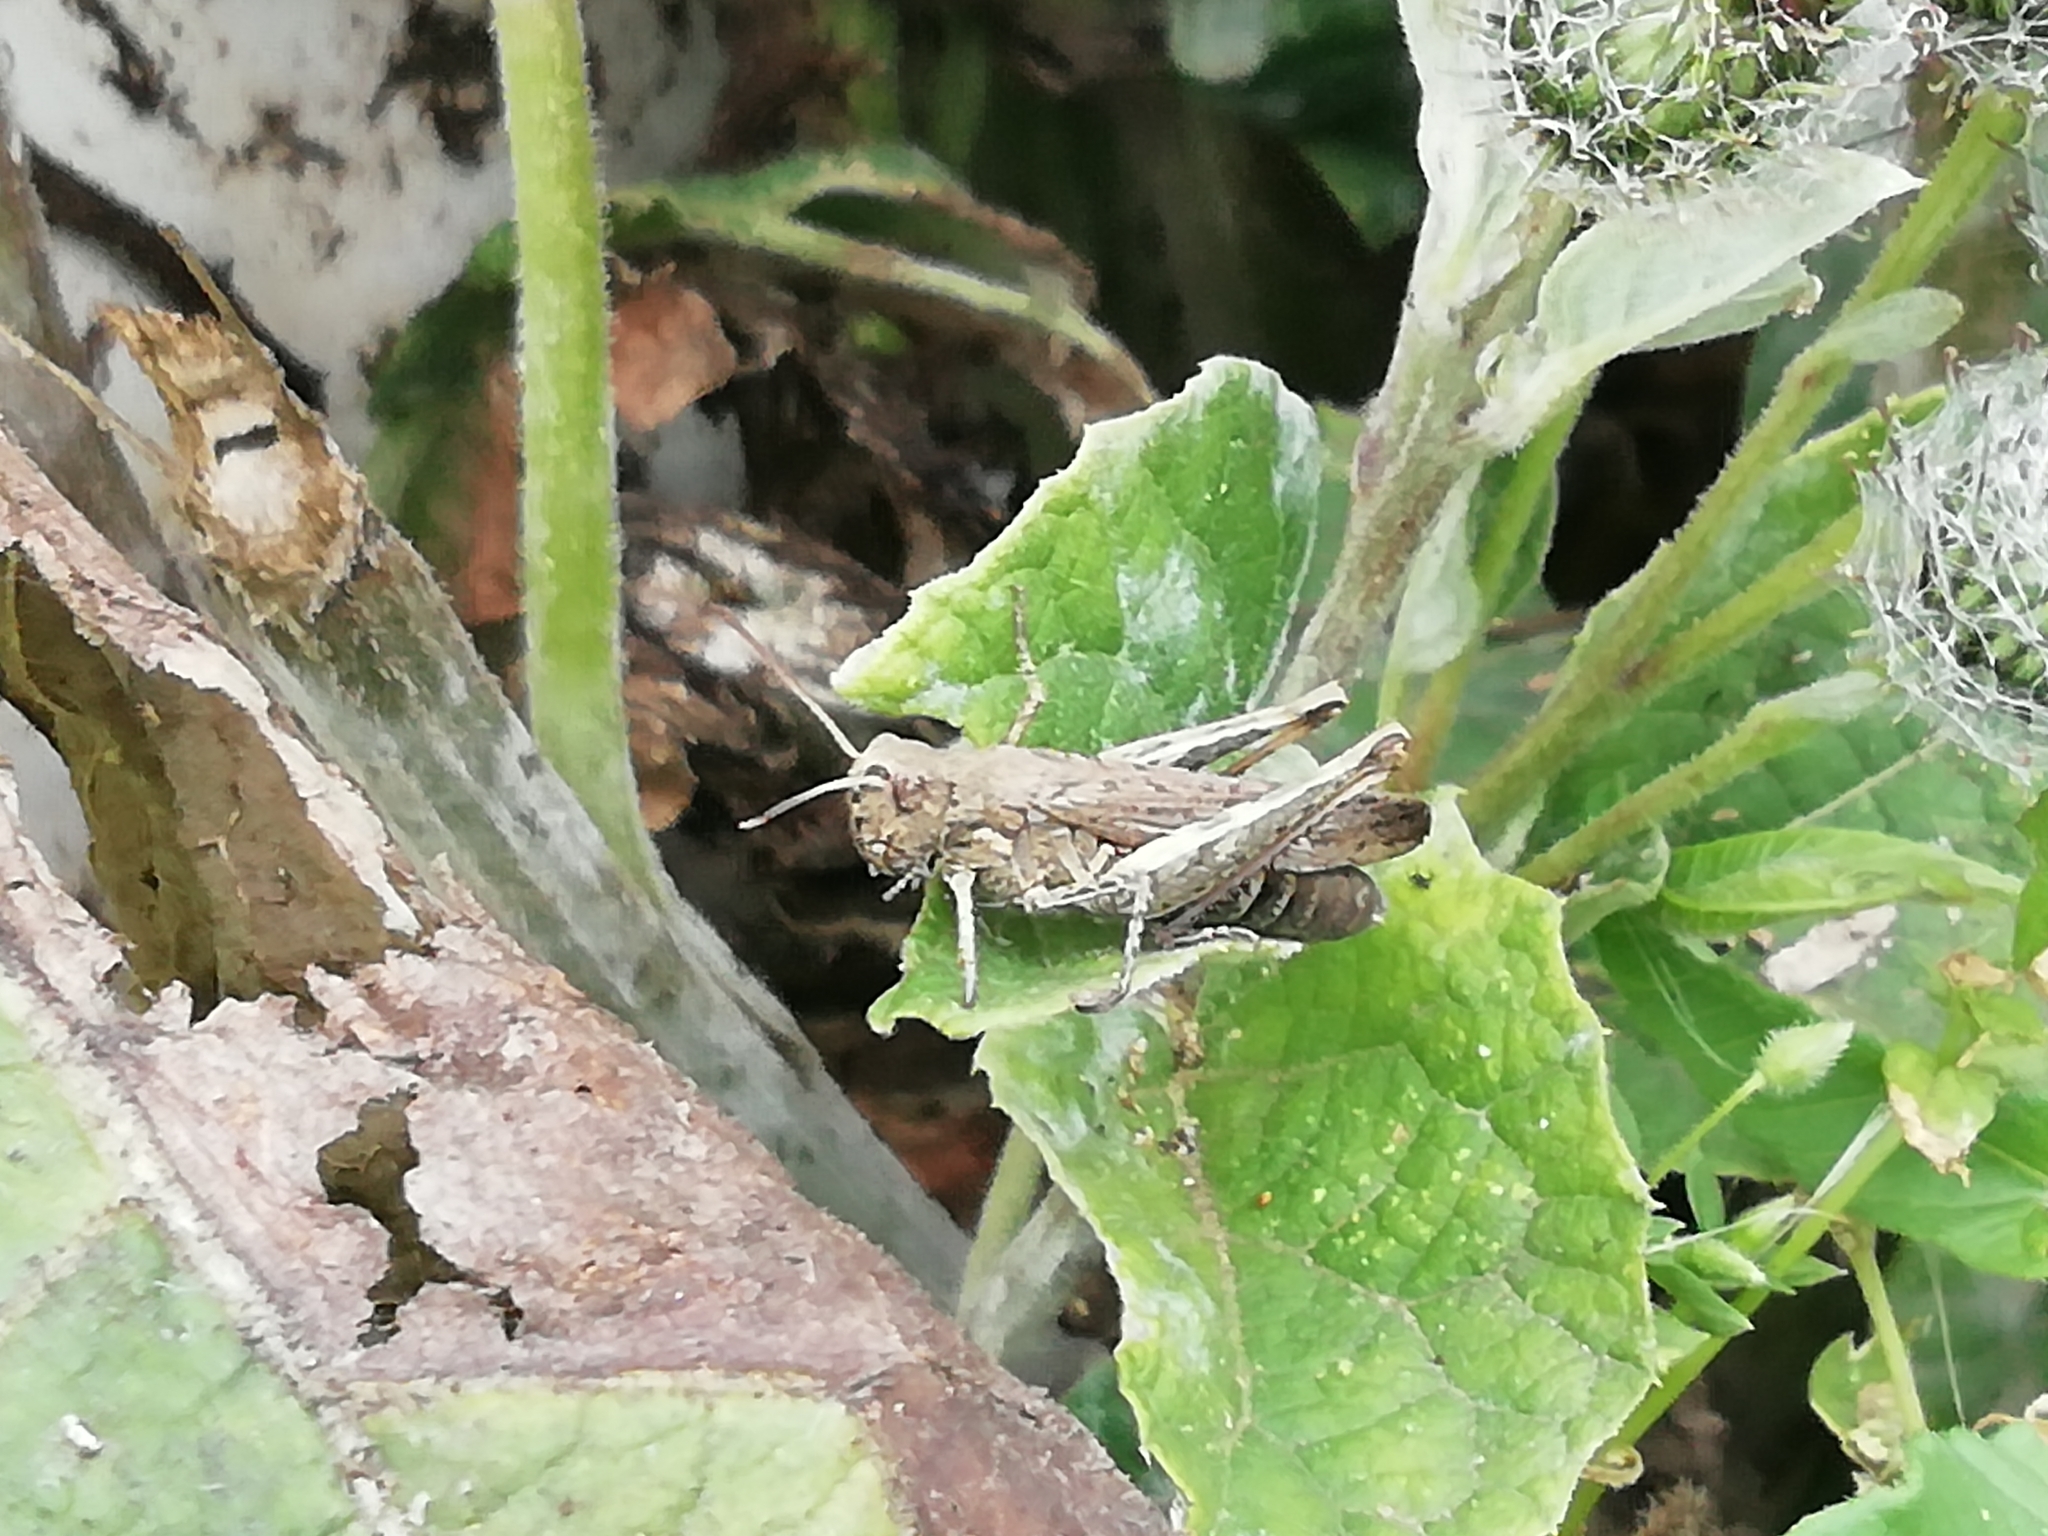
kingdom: Animalia
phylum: Arthropoda
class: Insecta
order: Orthoptera
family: Acrididae
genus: Chorthippus
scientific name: Chorthippus biguttulus
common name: Bow-winged grasshopper
